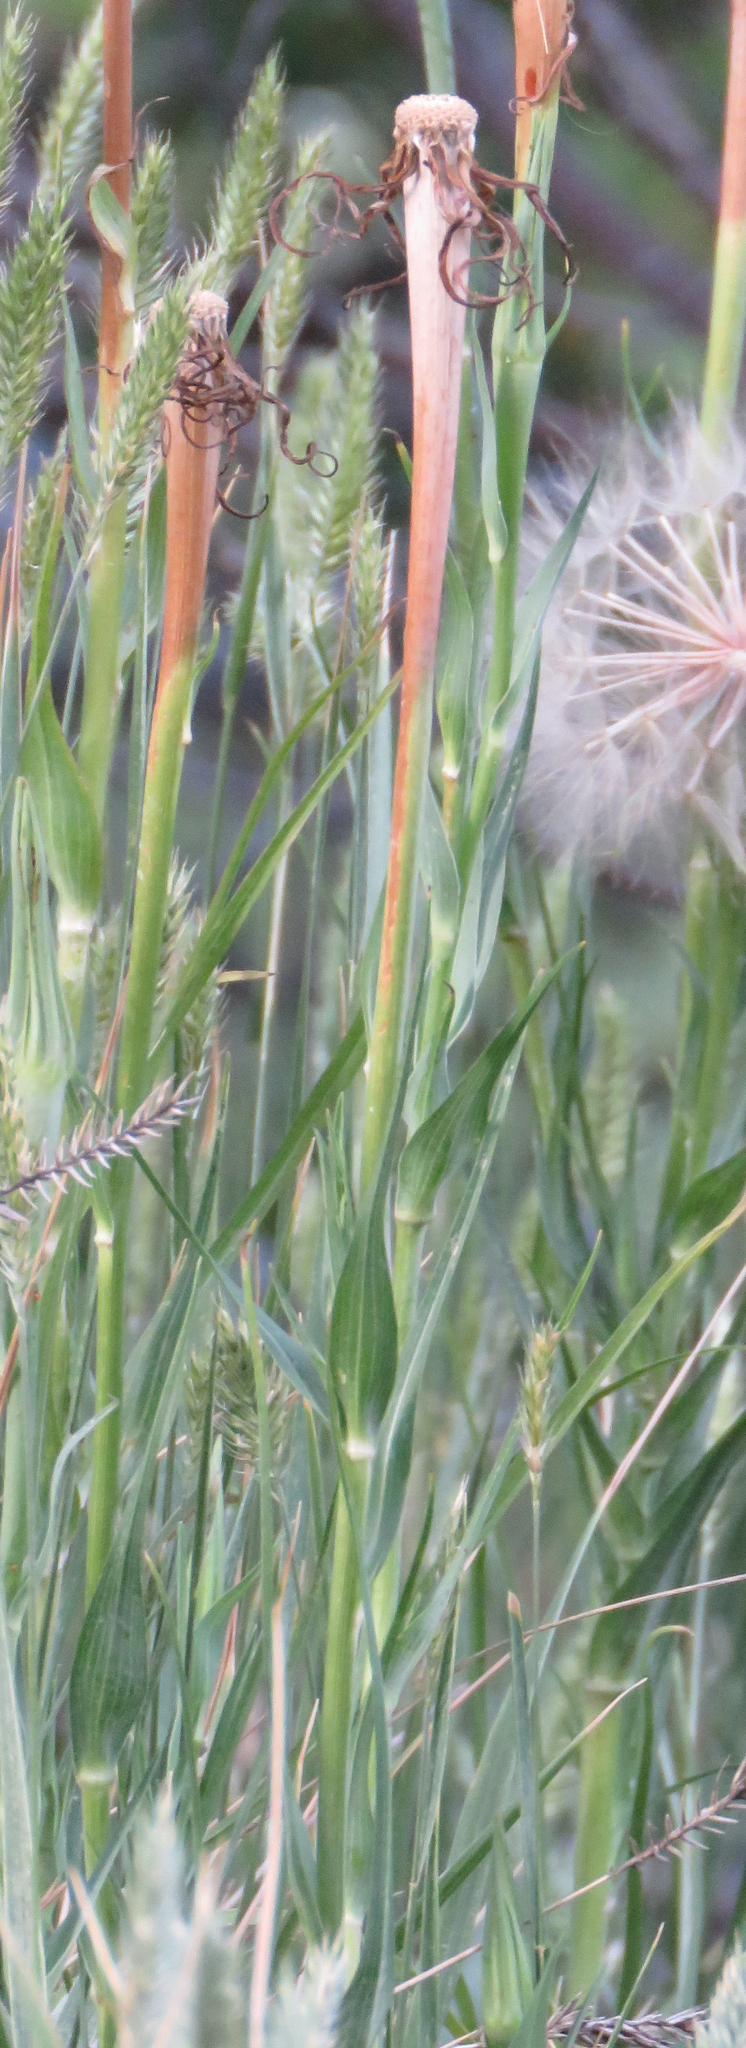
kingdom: Plantae
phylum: Tracheophyta
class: Magnoliopsida
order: Asterales
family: Asteraceae
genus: Tragopogon
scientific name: Tragopogon dubius
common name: Yellow salsify
